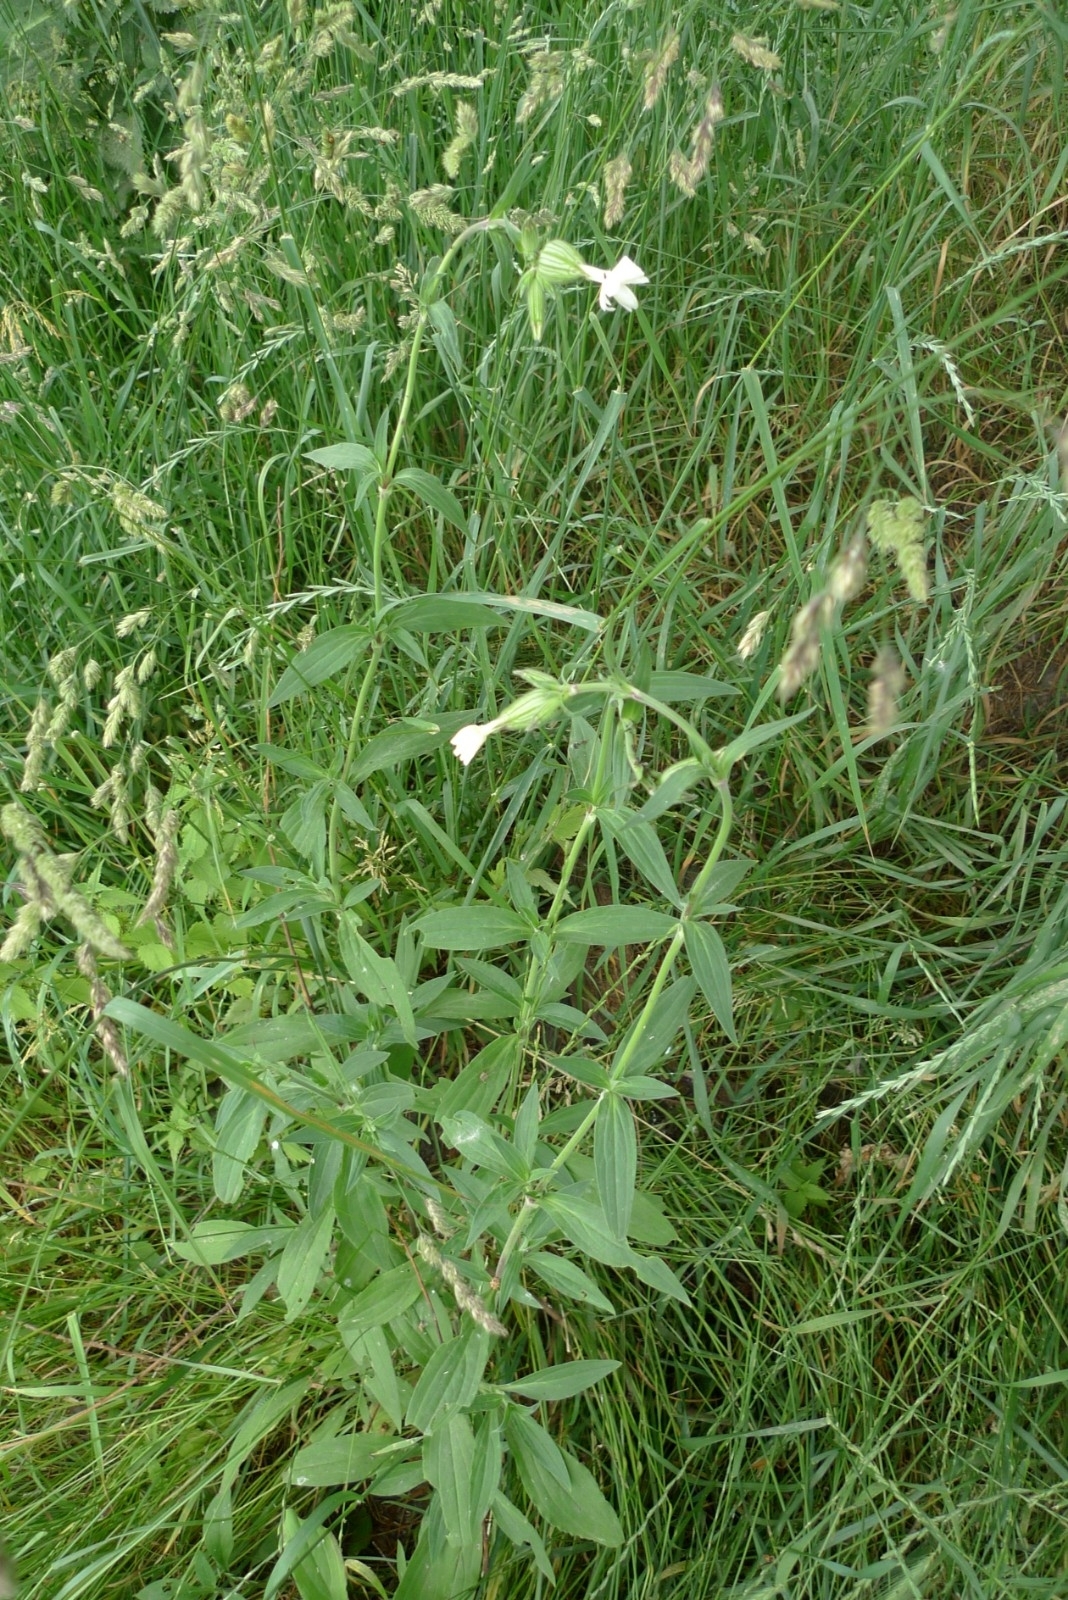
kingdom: Plantae
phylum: Tracheophyta
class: Magnoliopsida
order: Caryophyllales
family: Caryophyllaceae
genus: Silene
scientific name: Silene latifolia
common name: White campion
